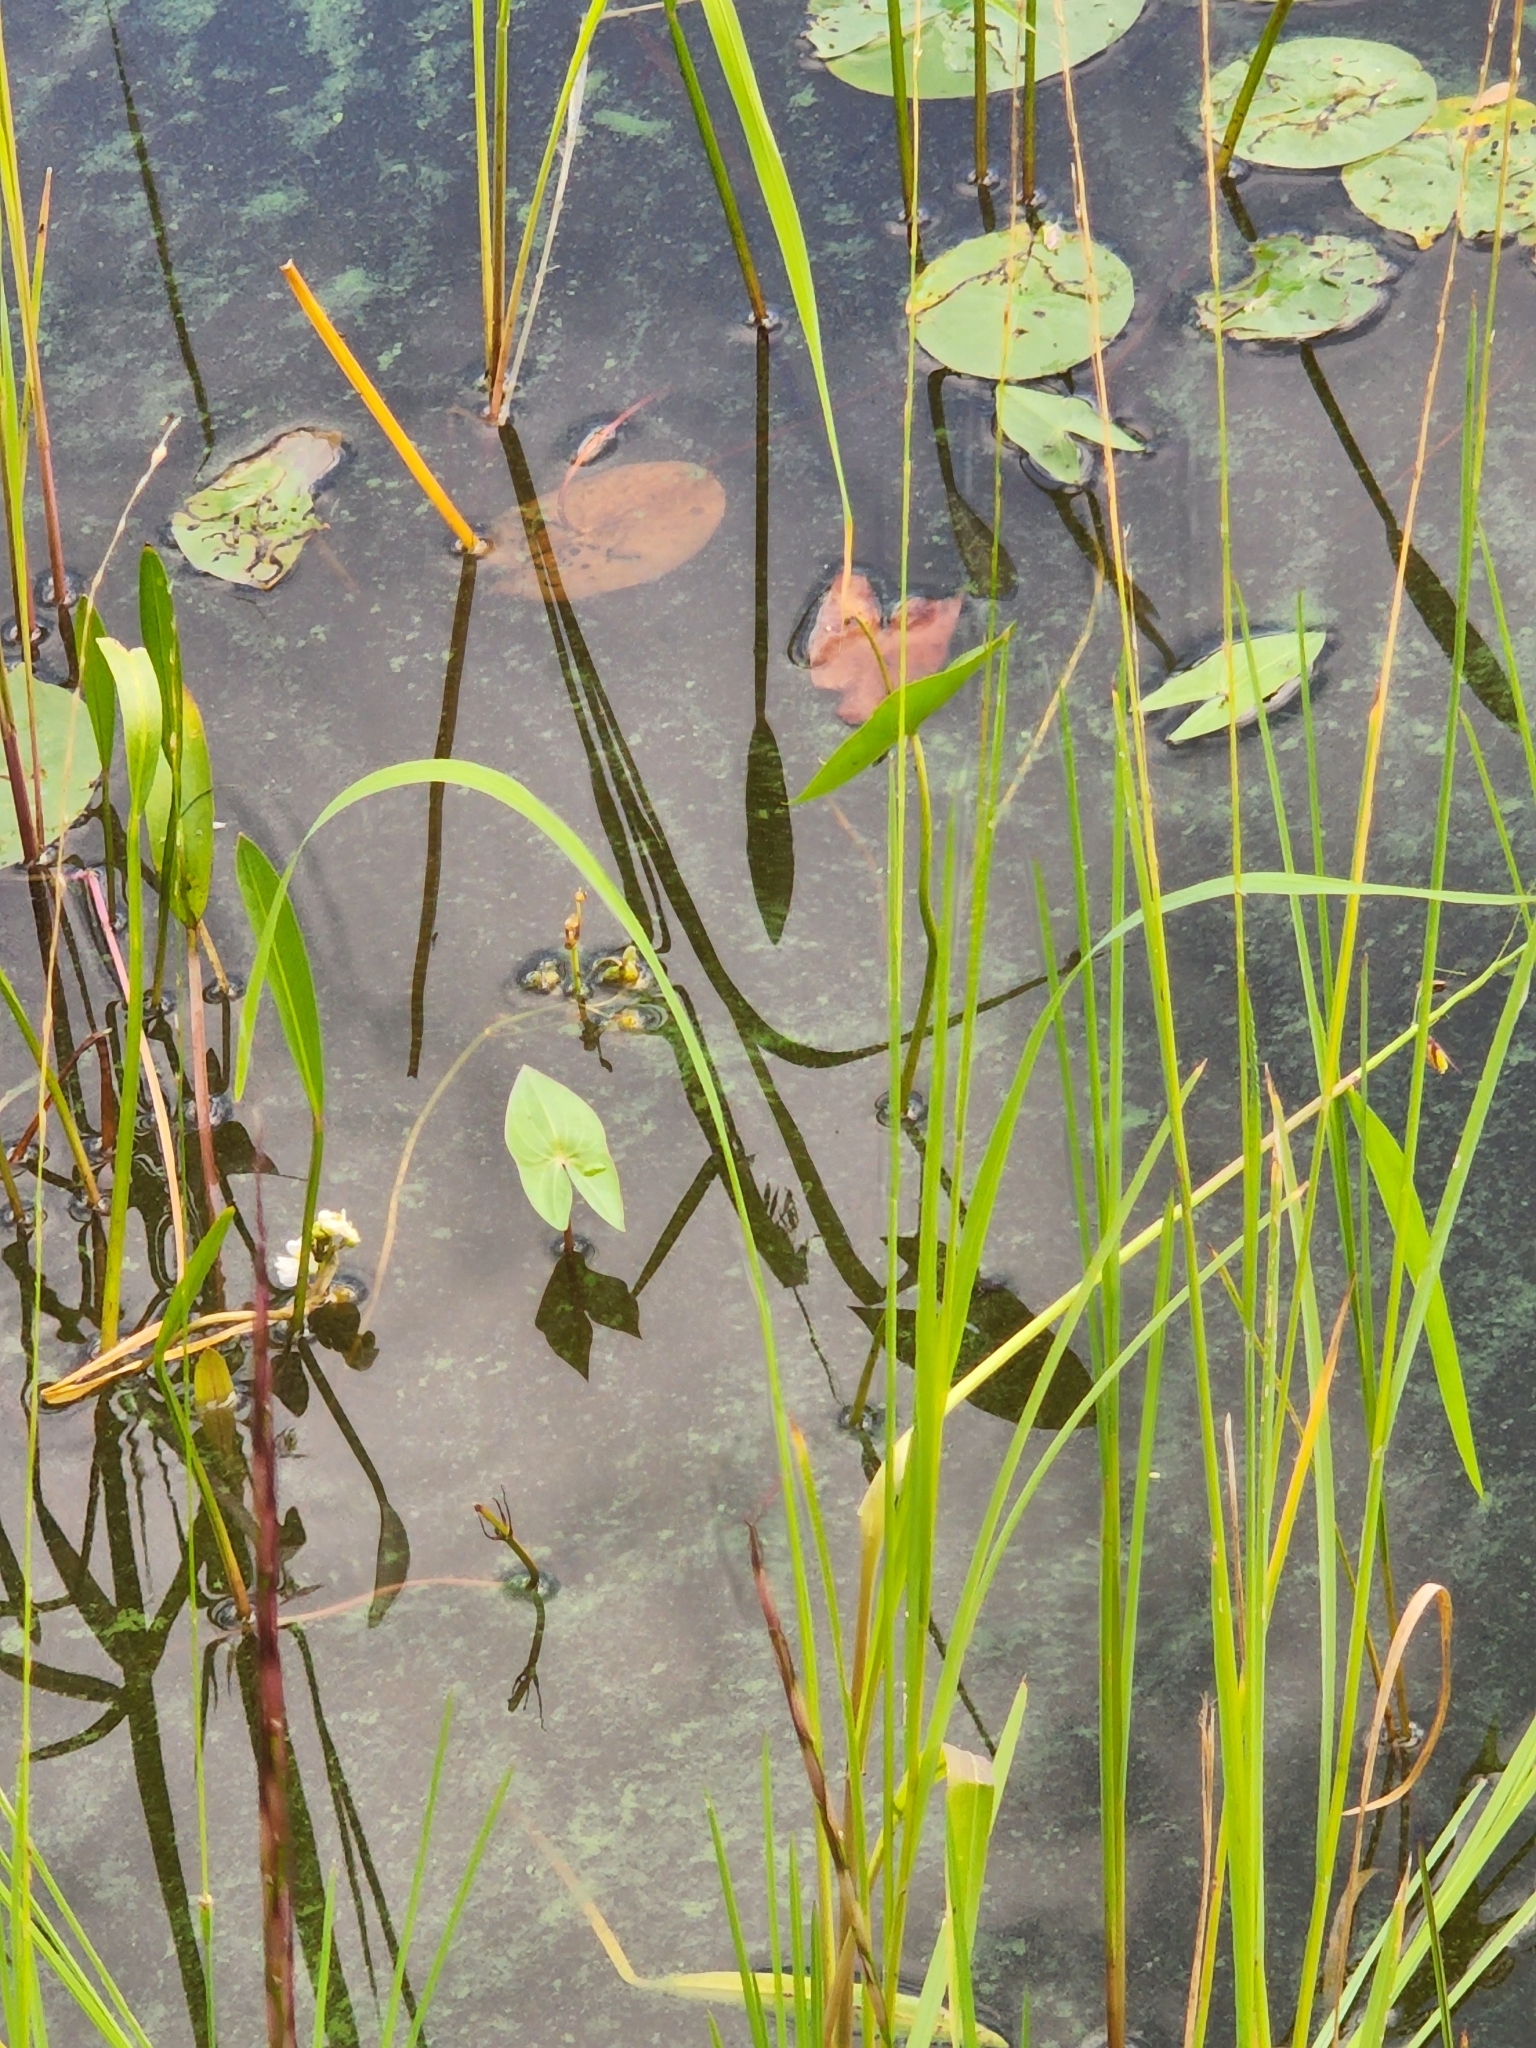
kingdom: Plantae
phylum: Tracheophyta
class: Liliopsida
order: Alismatales
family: Alismataceae
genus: Sagittaria
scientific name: Sagittaria cuneata
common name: Northern arrowhead
